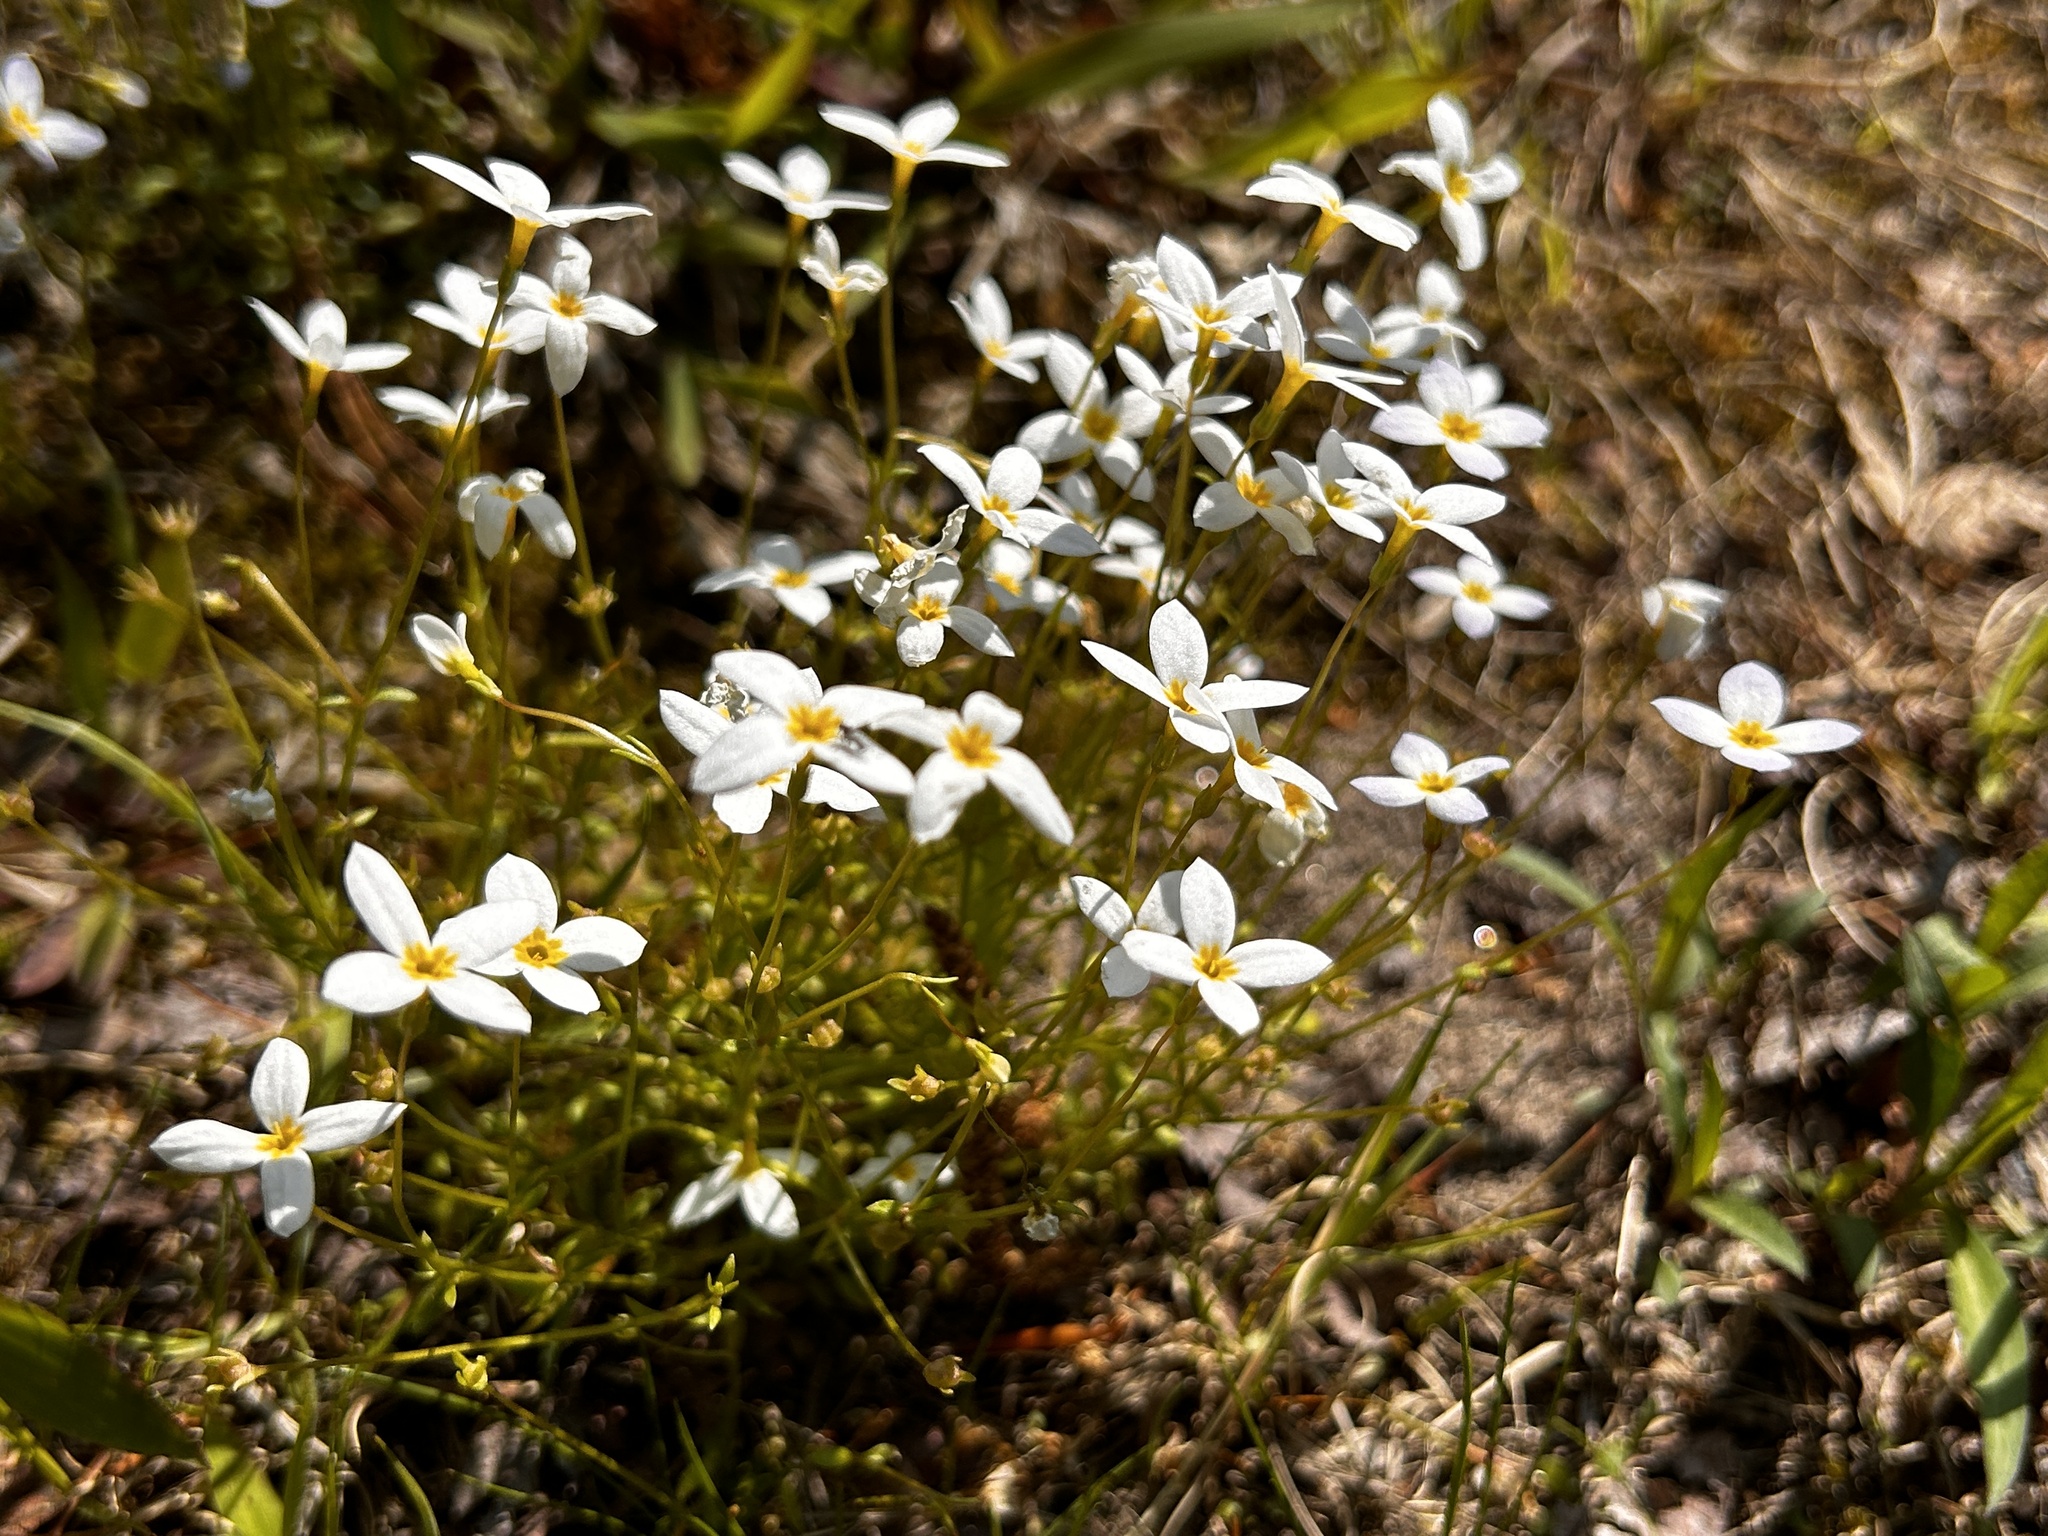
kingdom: Plantae
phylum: Tracheophyta
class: Magnoliopsida
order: Gentianales
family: Rubiaceae
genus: Houstonia
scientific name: Houstonia caerulea
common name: Bluets
